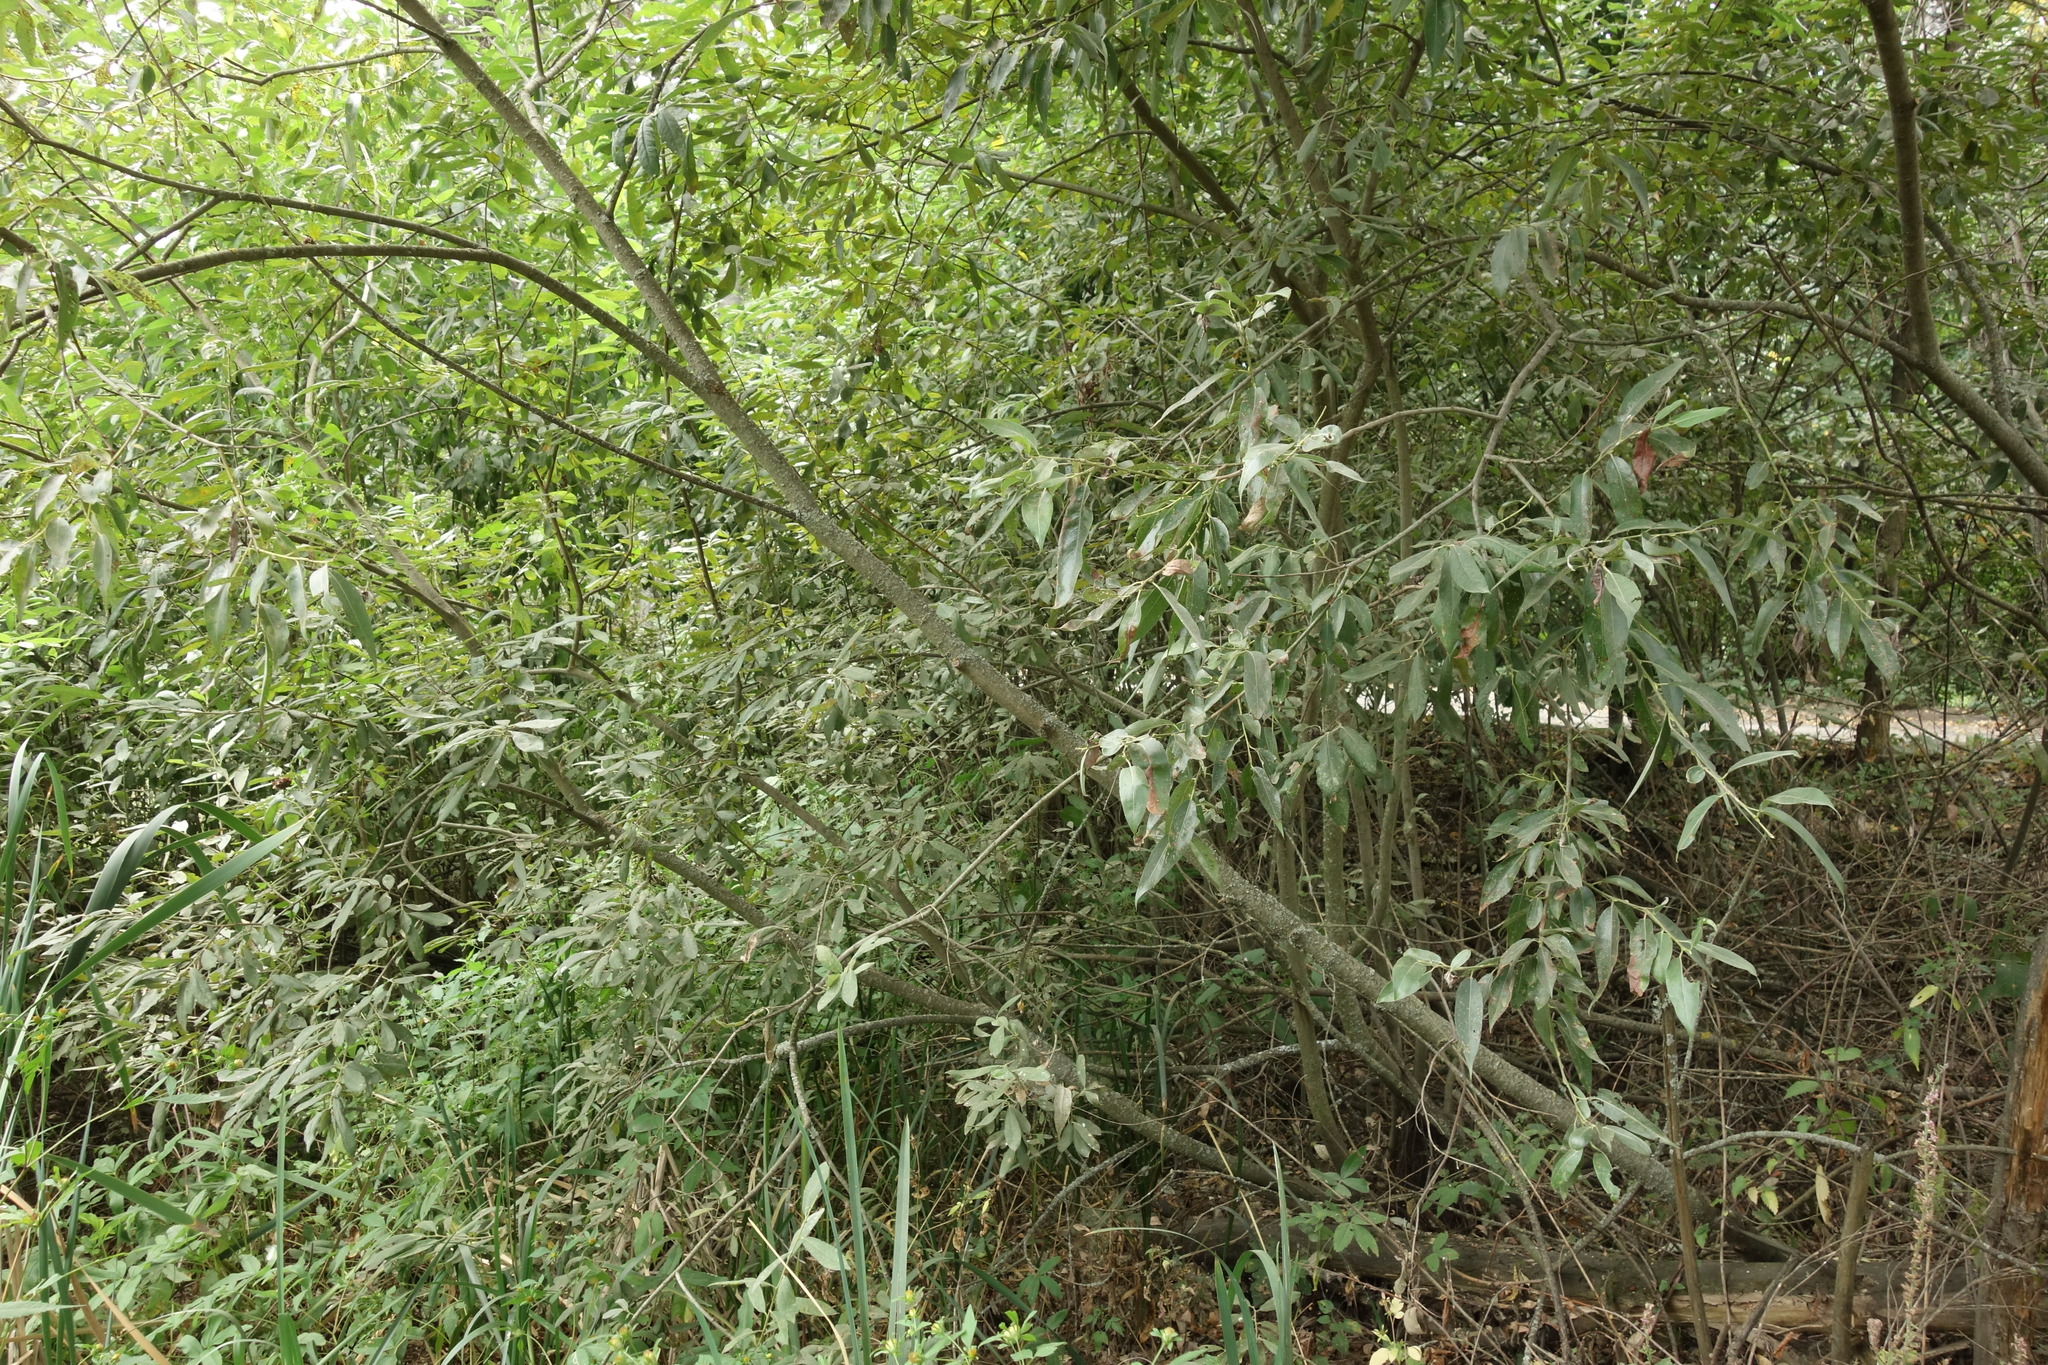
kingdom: Plantae
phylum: Tracheophyta
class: Magnoliopsida
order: Malpighiales
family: Salicaceae
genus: Salix
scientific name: Salix alba
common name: White willow
